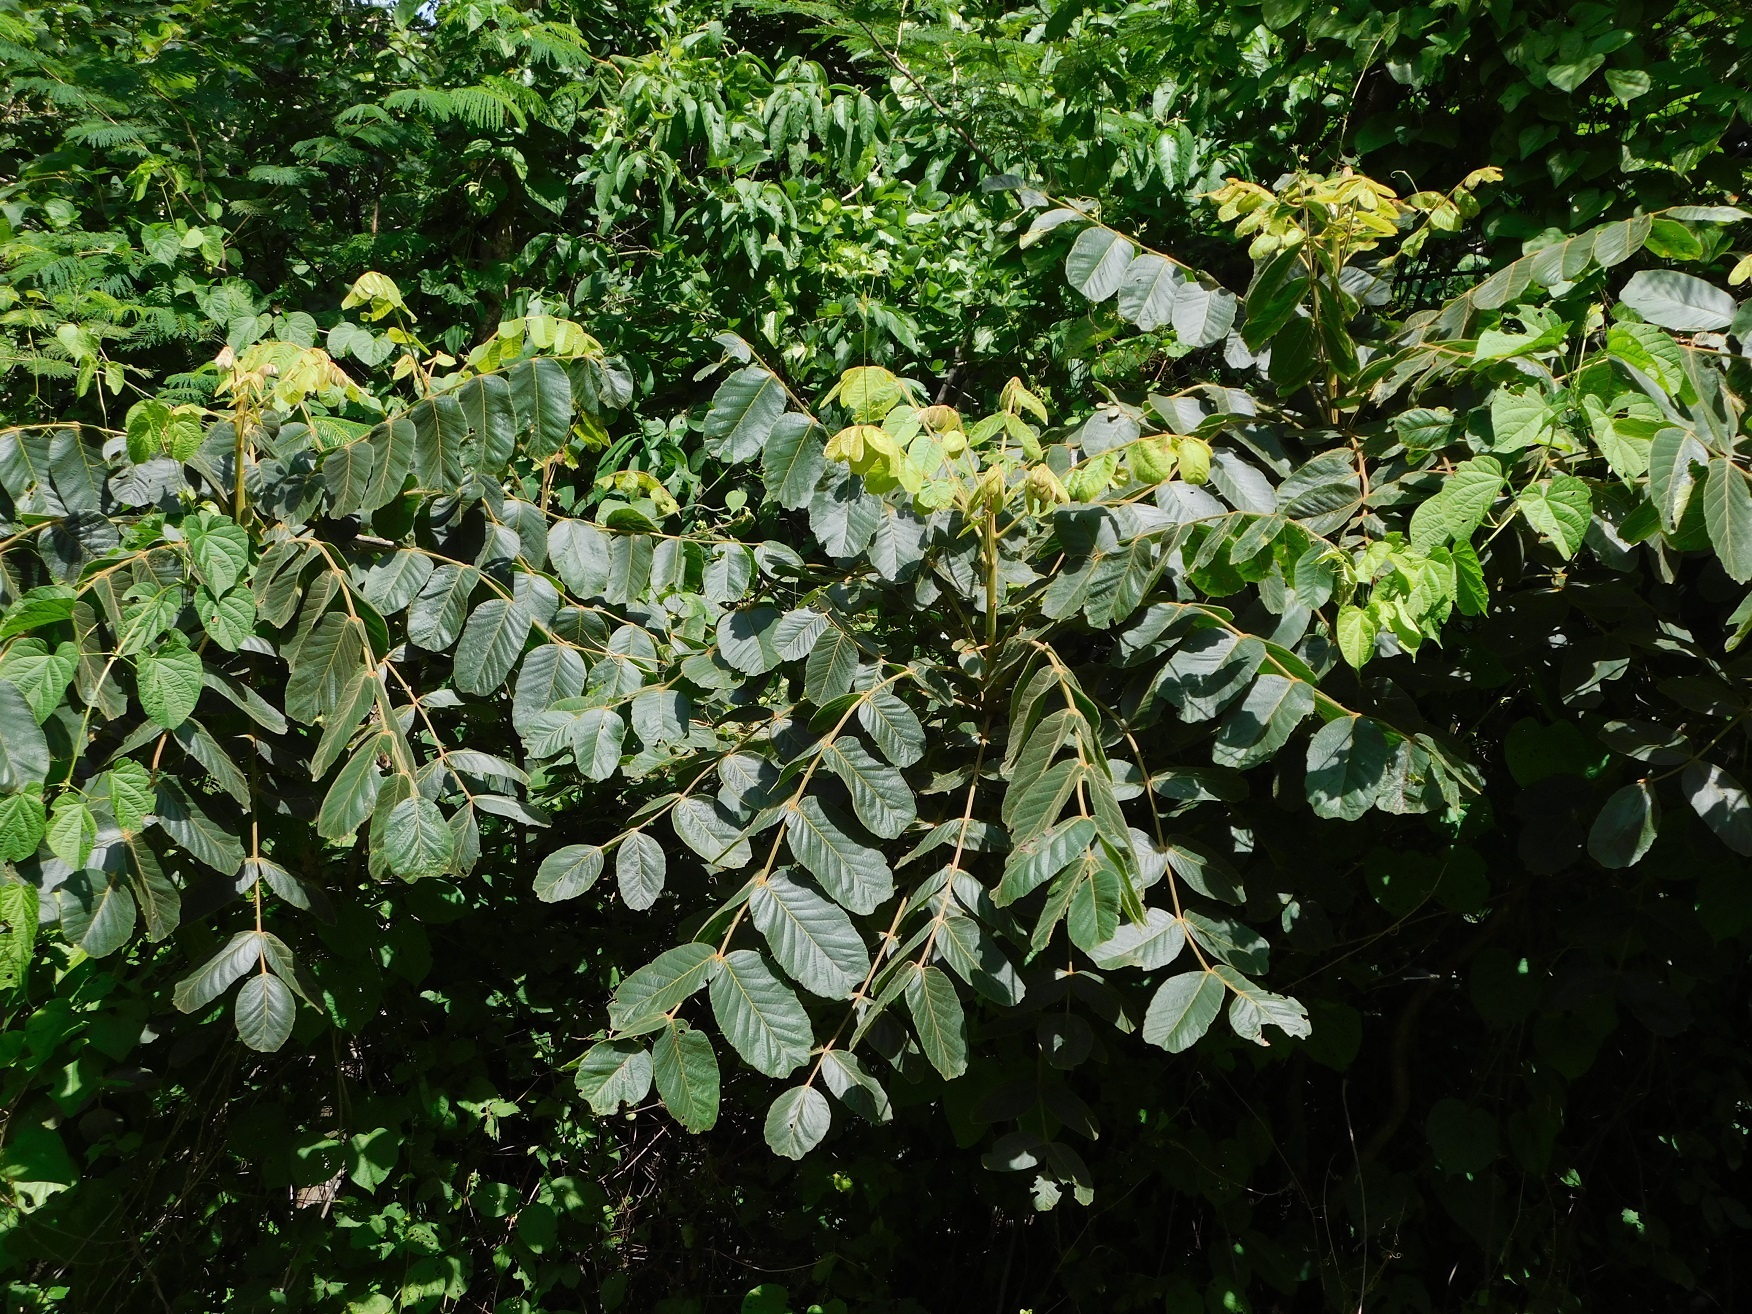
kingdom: Plantae
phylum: Tracheophyta
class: Magnoliopsida
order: Sapindales
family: Anacardiaceae
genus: Comocladia
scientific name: Comocladia guatemalensis
